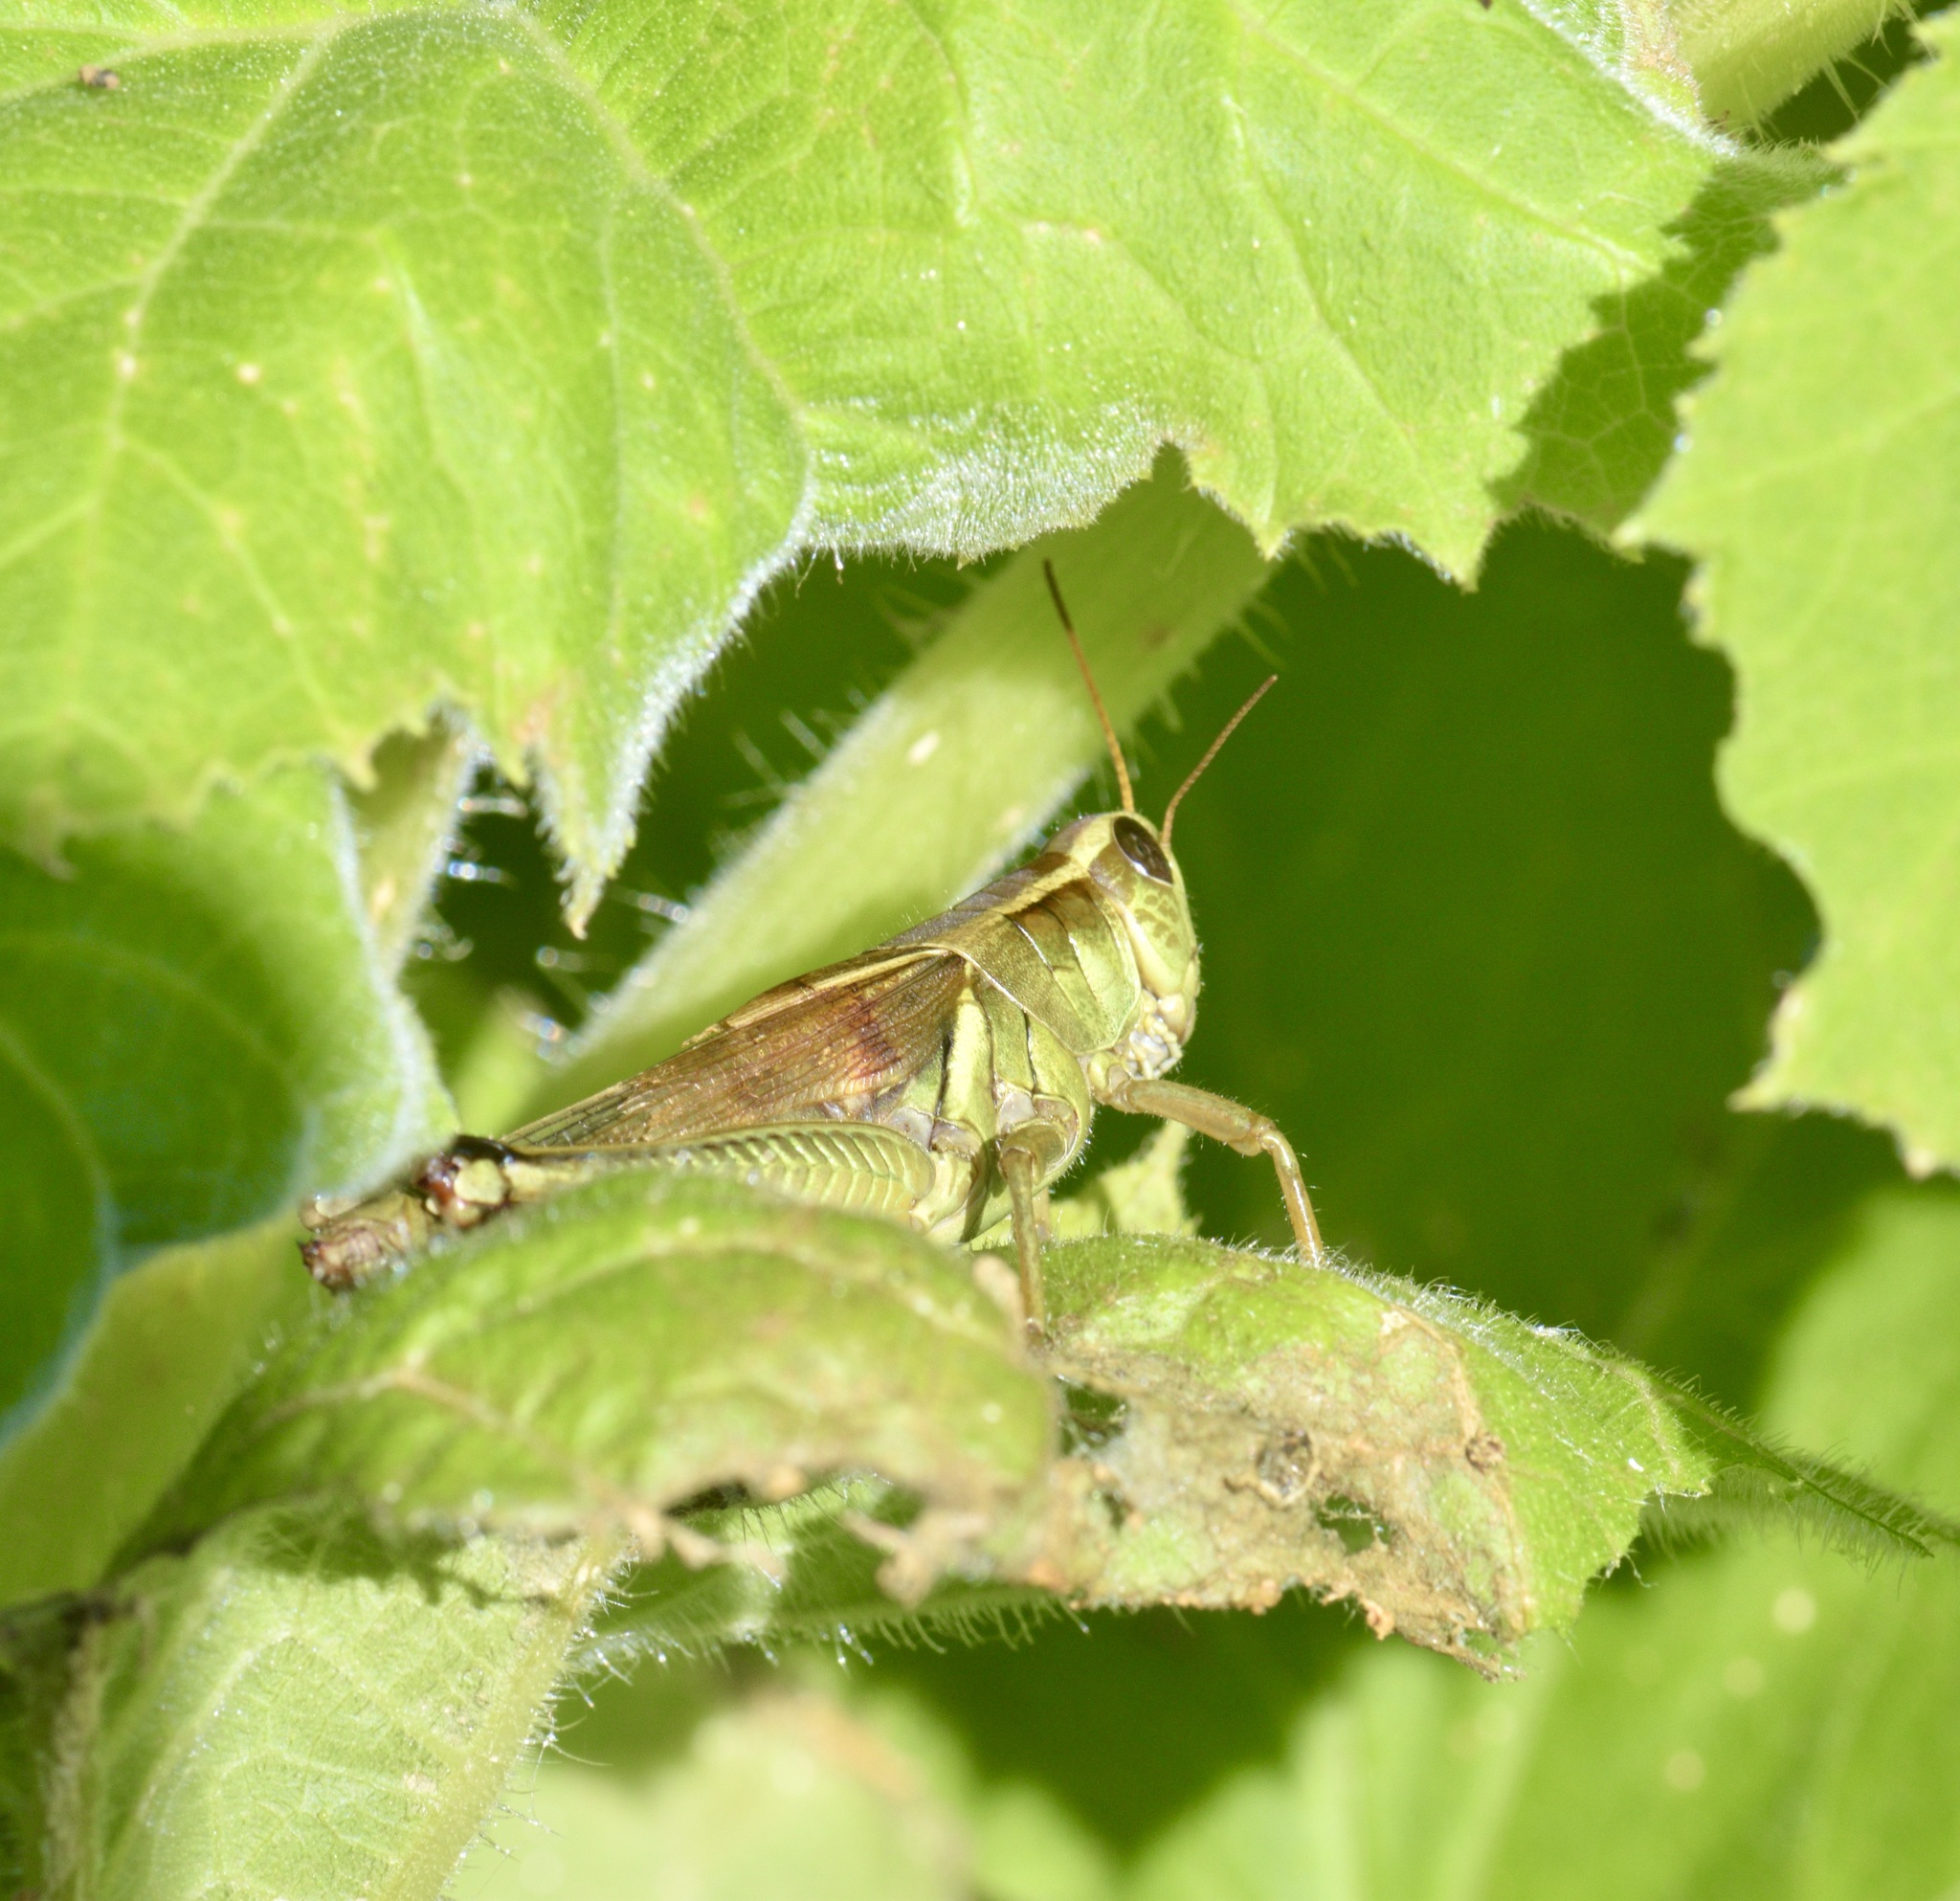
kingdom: Animalia
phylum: Arthropoda
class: Insecta
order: Orthoptera
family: Acrididae
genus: Melanoplus
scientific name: Melanoplus bivittatus
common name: Two-striped grasshopper
